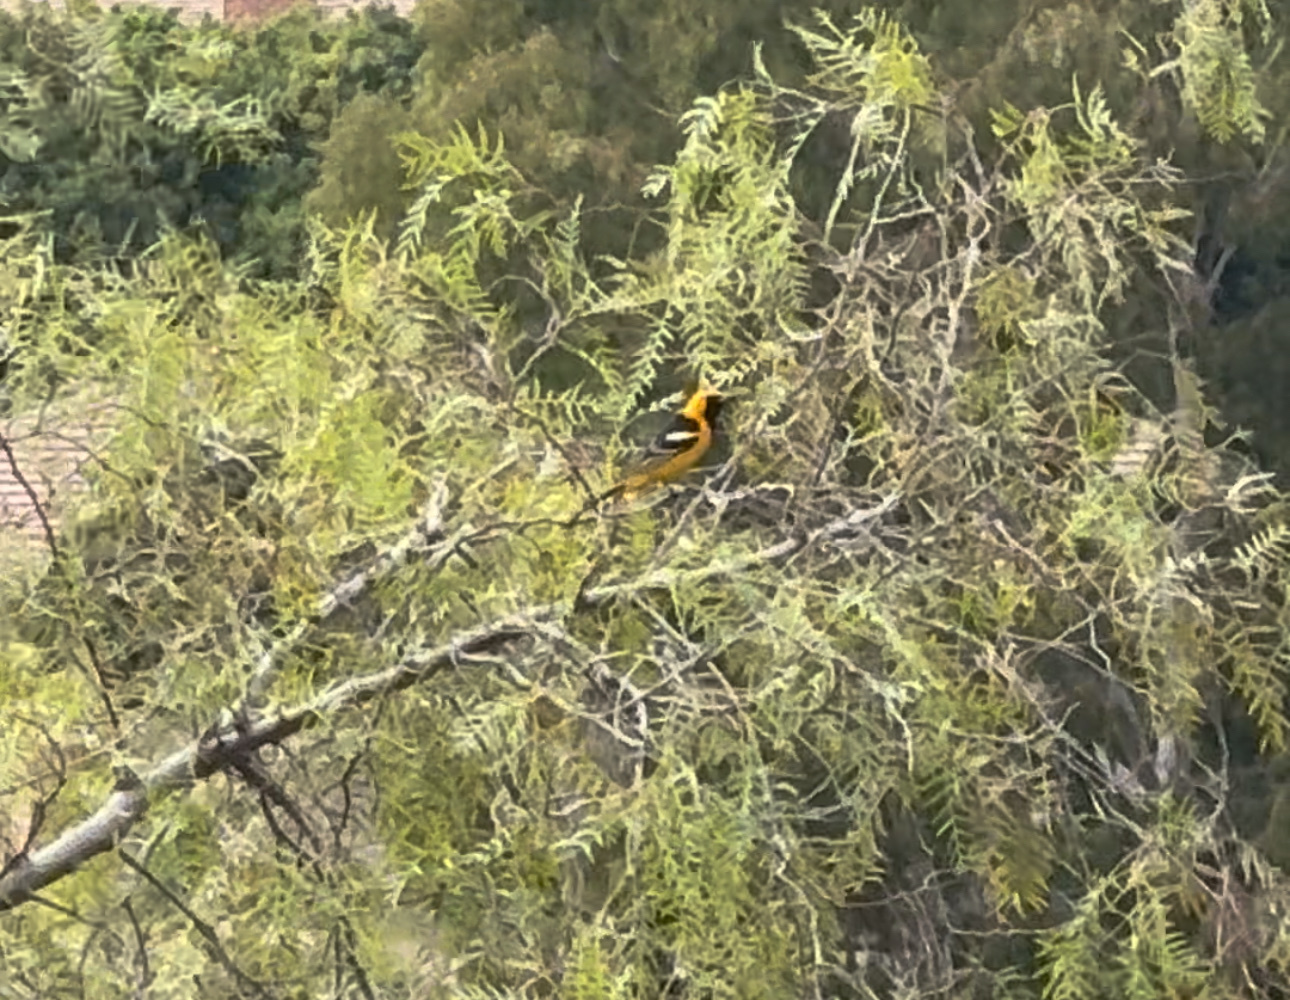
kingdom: Animalia
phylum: Chordata
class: Aves
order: Passeriformes
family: Icteridae
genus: Icterus
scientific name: Icterus cucullatus
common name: Hooded oriole
